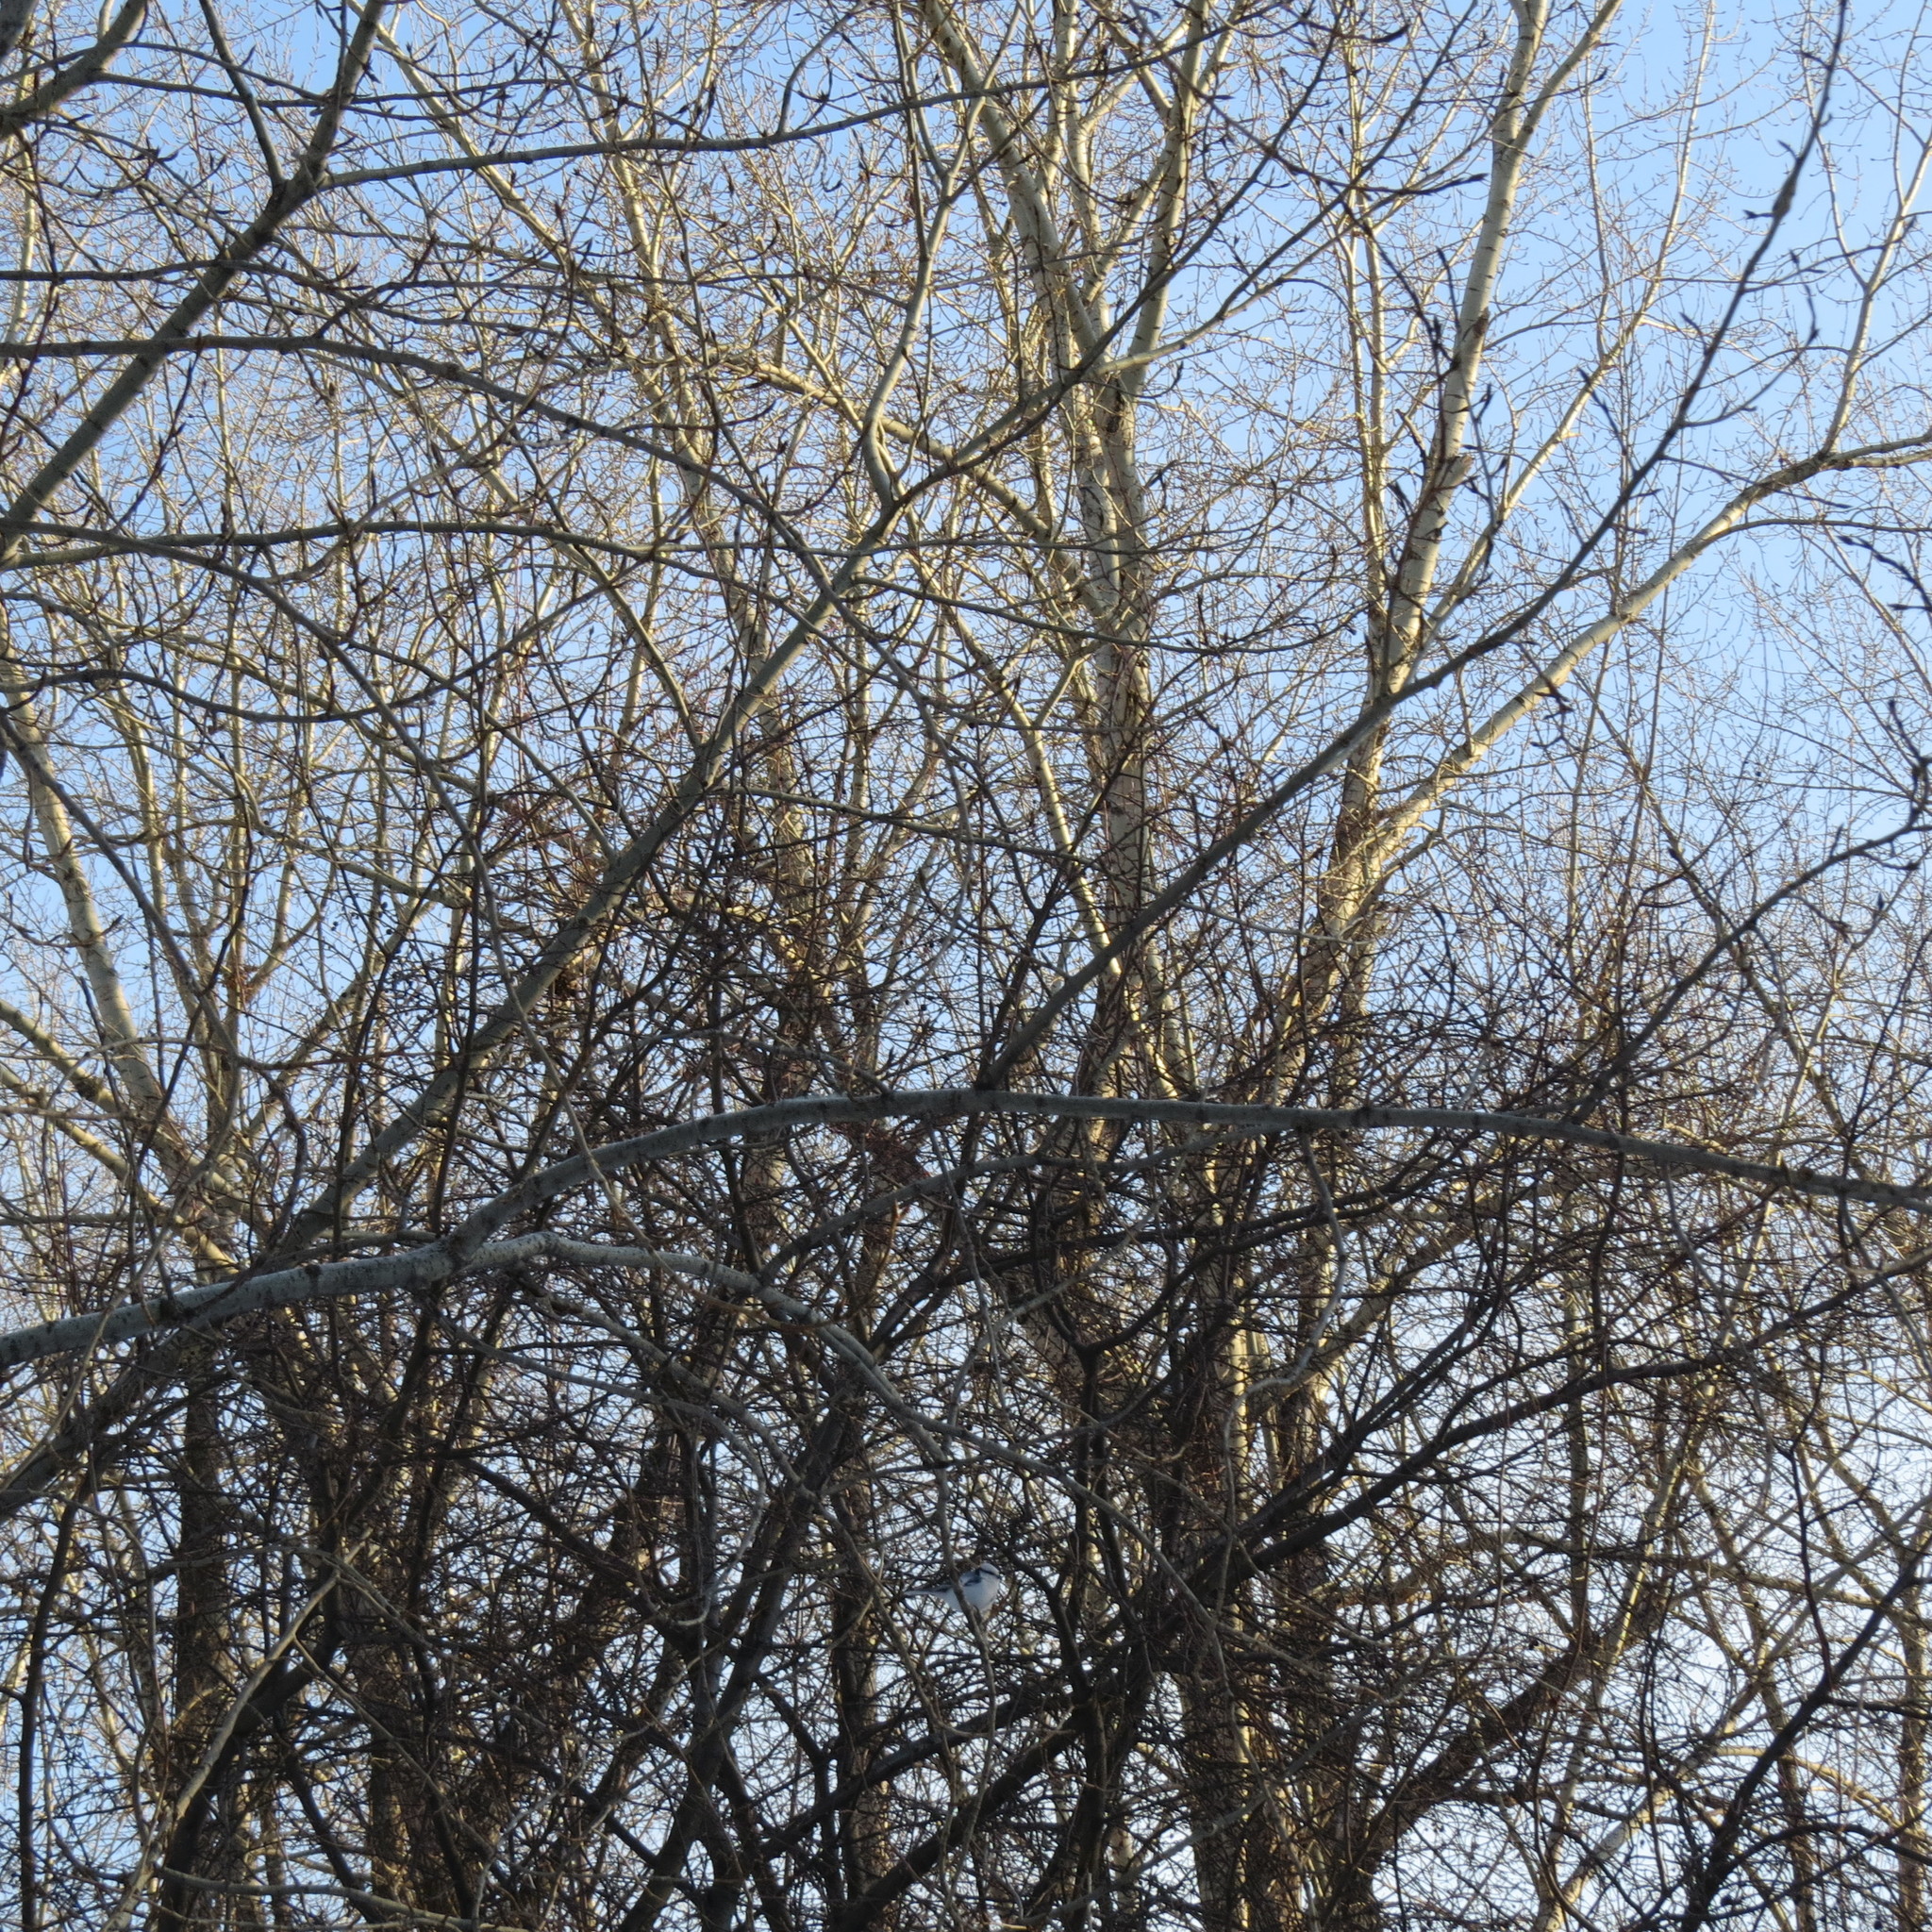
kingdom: Animalia
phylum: Chordata
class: Aves
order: Passeriformes
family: Paridae
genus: Cyanistes
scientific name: Cyanistes cyanus
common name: Azure tit
